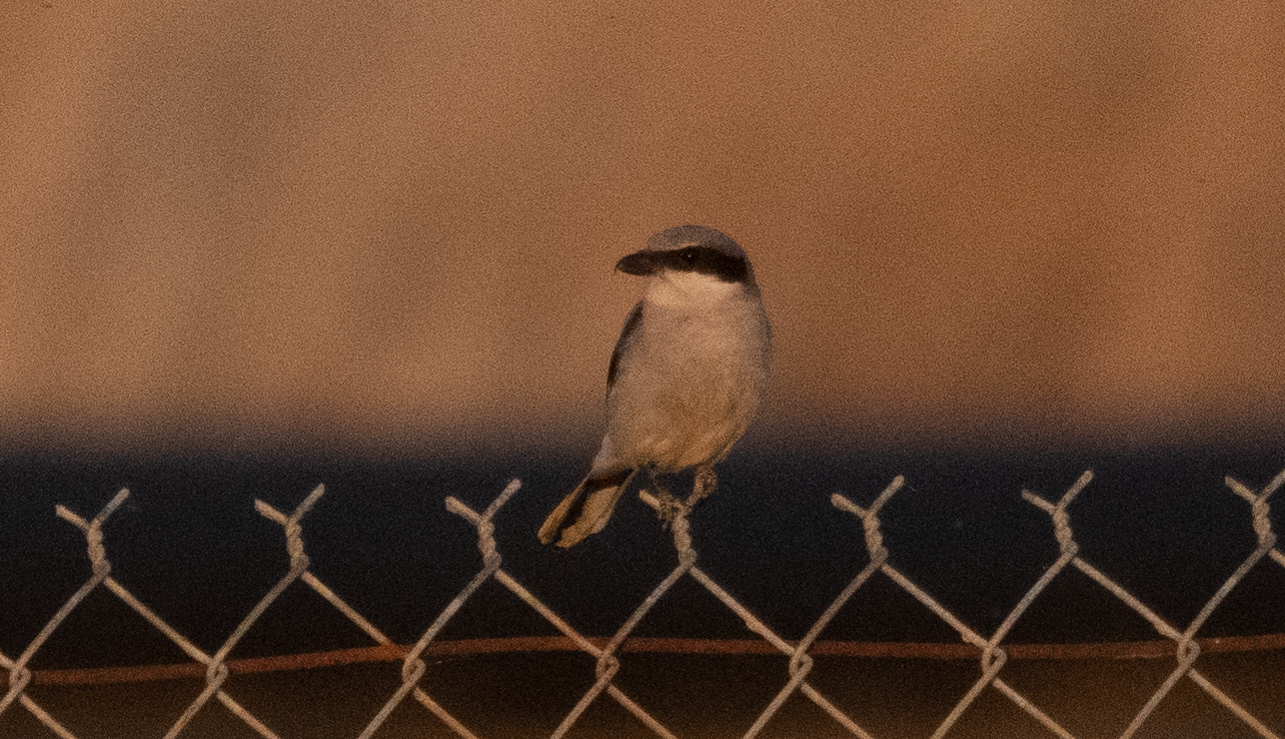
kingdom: Animalia
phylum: Chordata
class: Aves
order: Passeriformes
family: Laniidae
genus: Lanius
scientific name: Lanius ludovicianus
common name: Loggerhead shrike
